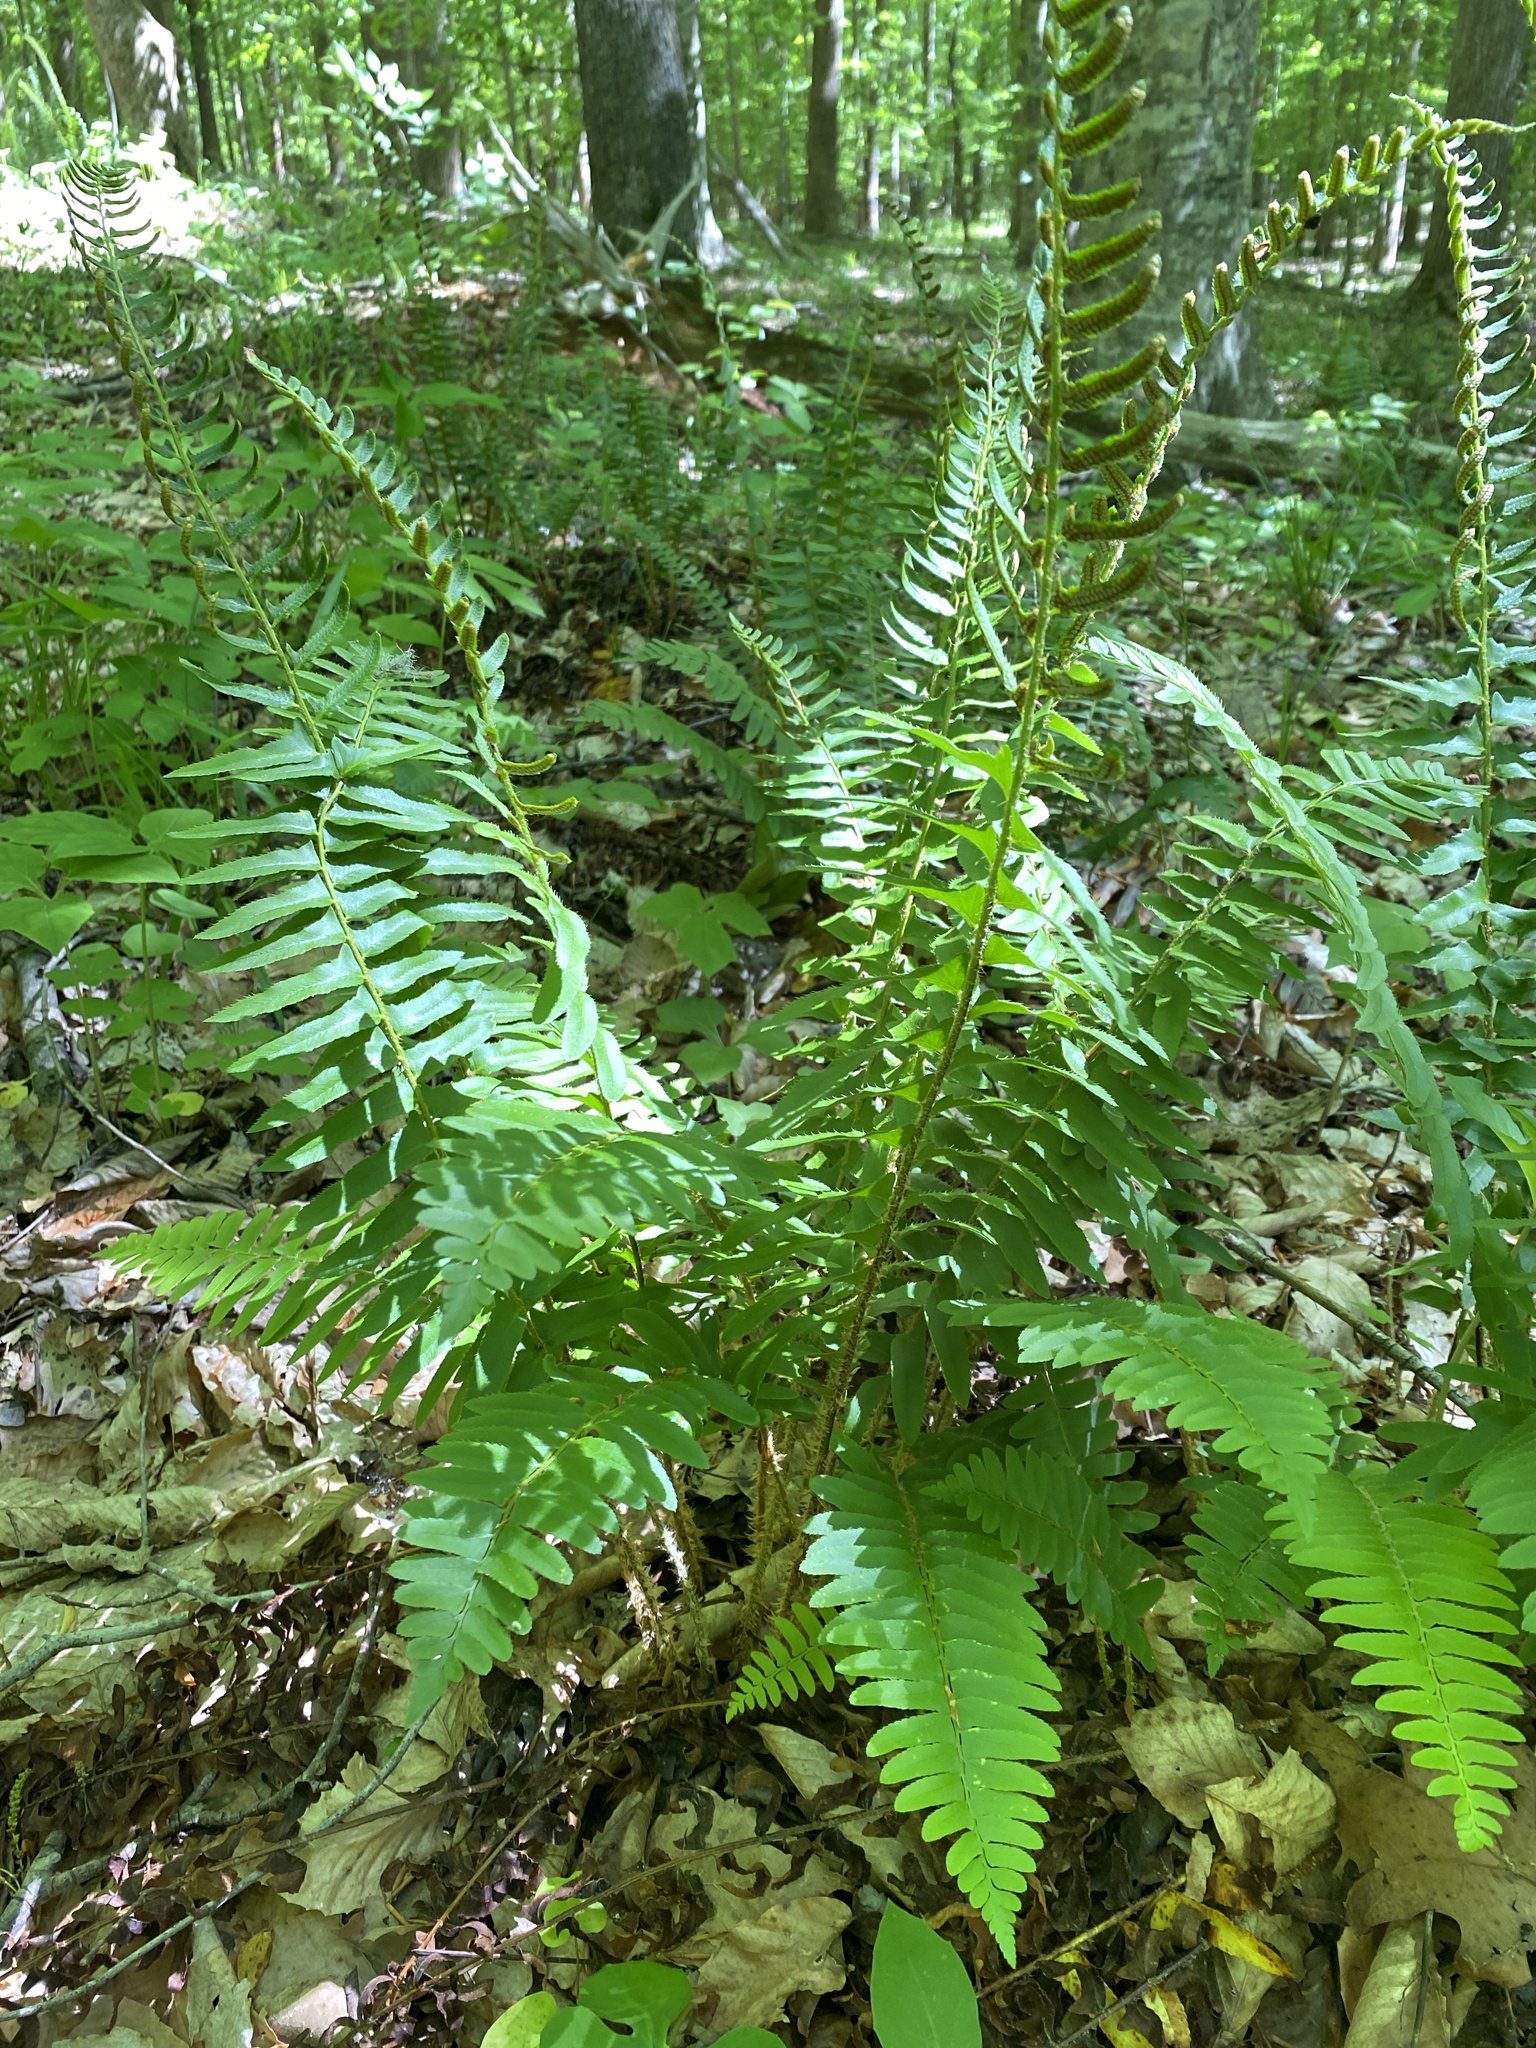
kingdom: Plantae
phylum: Tracheophyta
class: Polypodiopsida
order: Polypodiales
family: Dryopteridaceae
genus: Polystichum
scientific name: Polystichum acrostichoides
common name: Christmas fern
